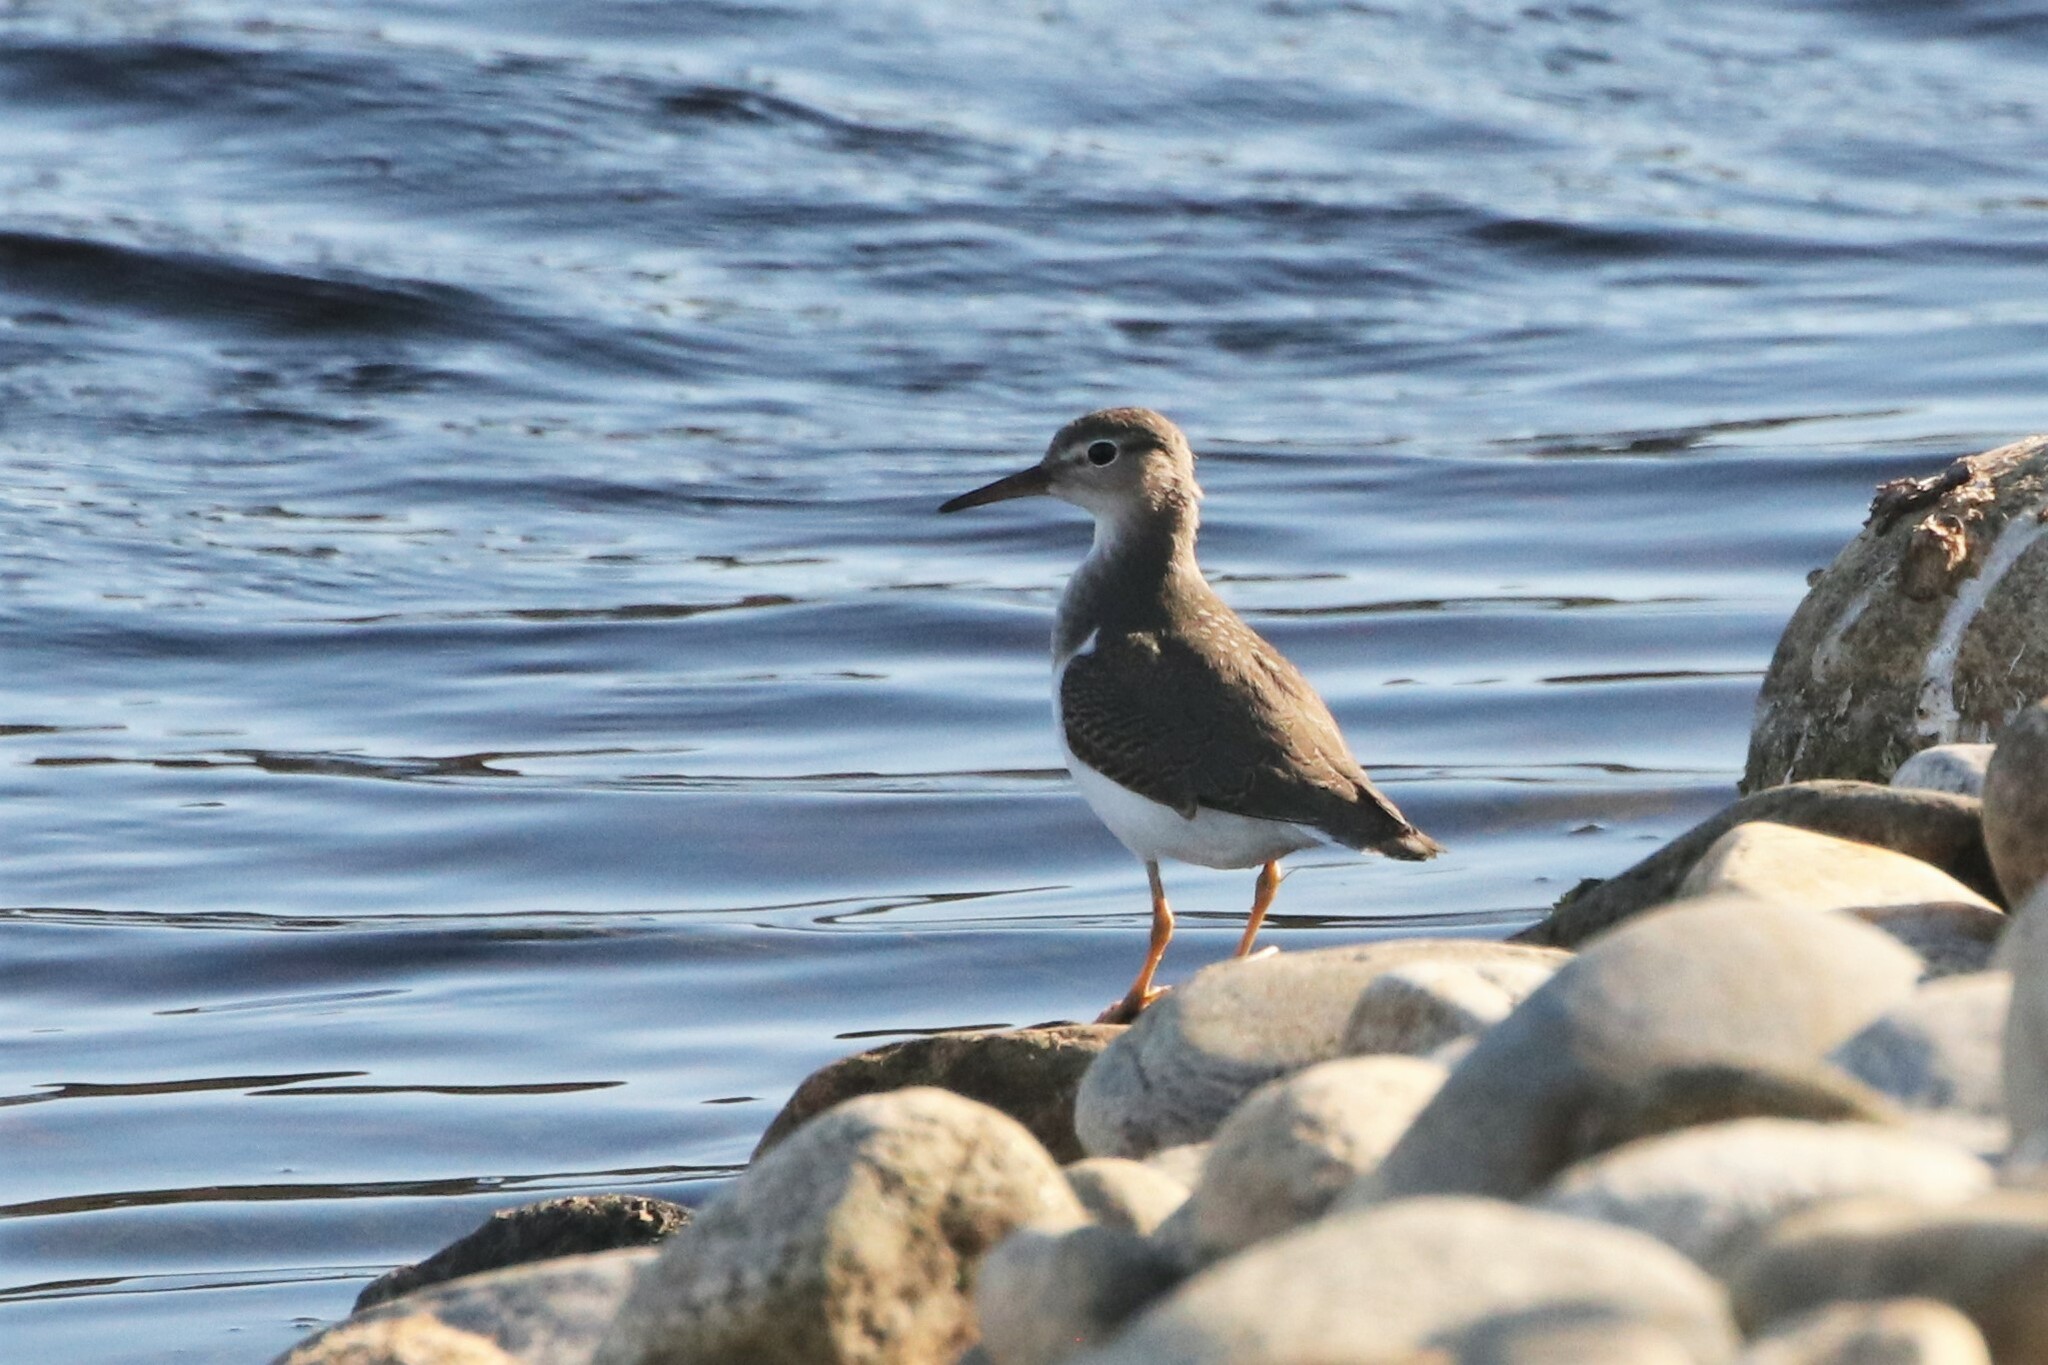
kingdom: Animalia
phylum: Chordata
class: Aves
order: Charadriiformes
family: Scolopacidae
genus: Actitis
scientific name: Actitis macularius
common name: Spotted sandpiper
